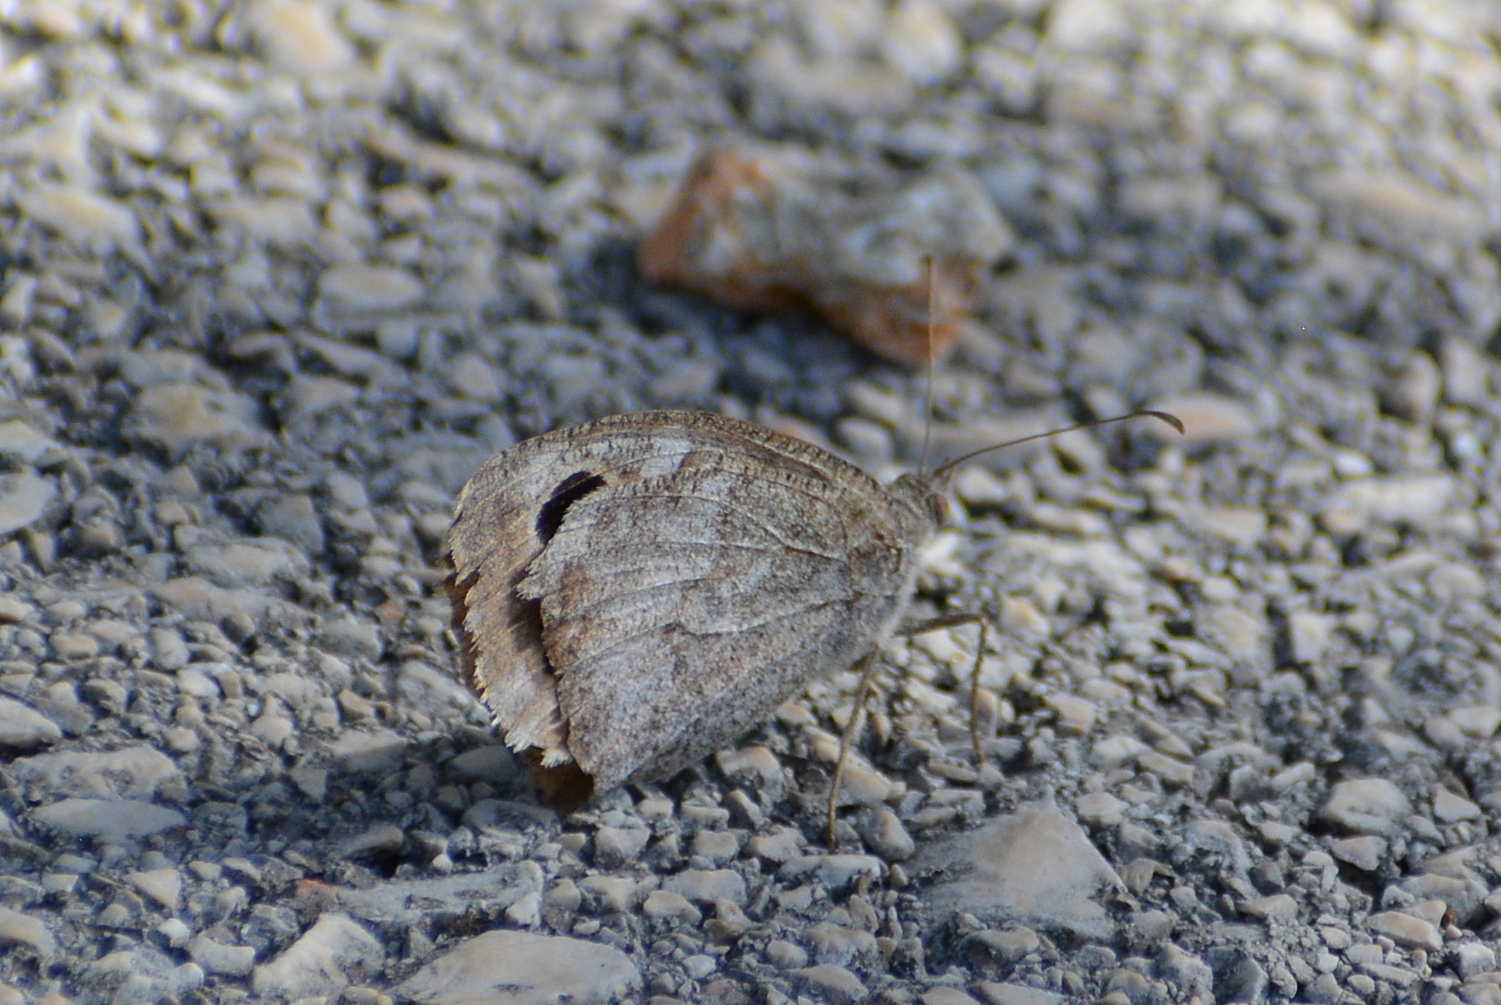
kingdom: Animalia
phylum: Arthropoda
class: Insecta
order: Lepidoptera
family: Nymphalidae
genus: Hipparchia
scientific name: Hipparchia statilinus
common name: Tree grayling
